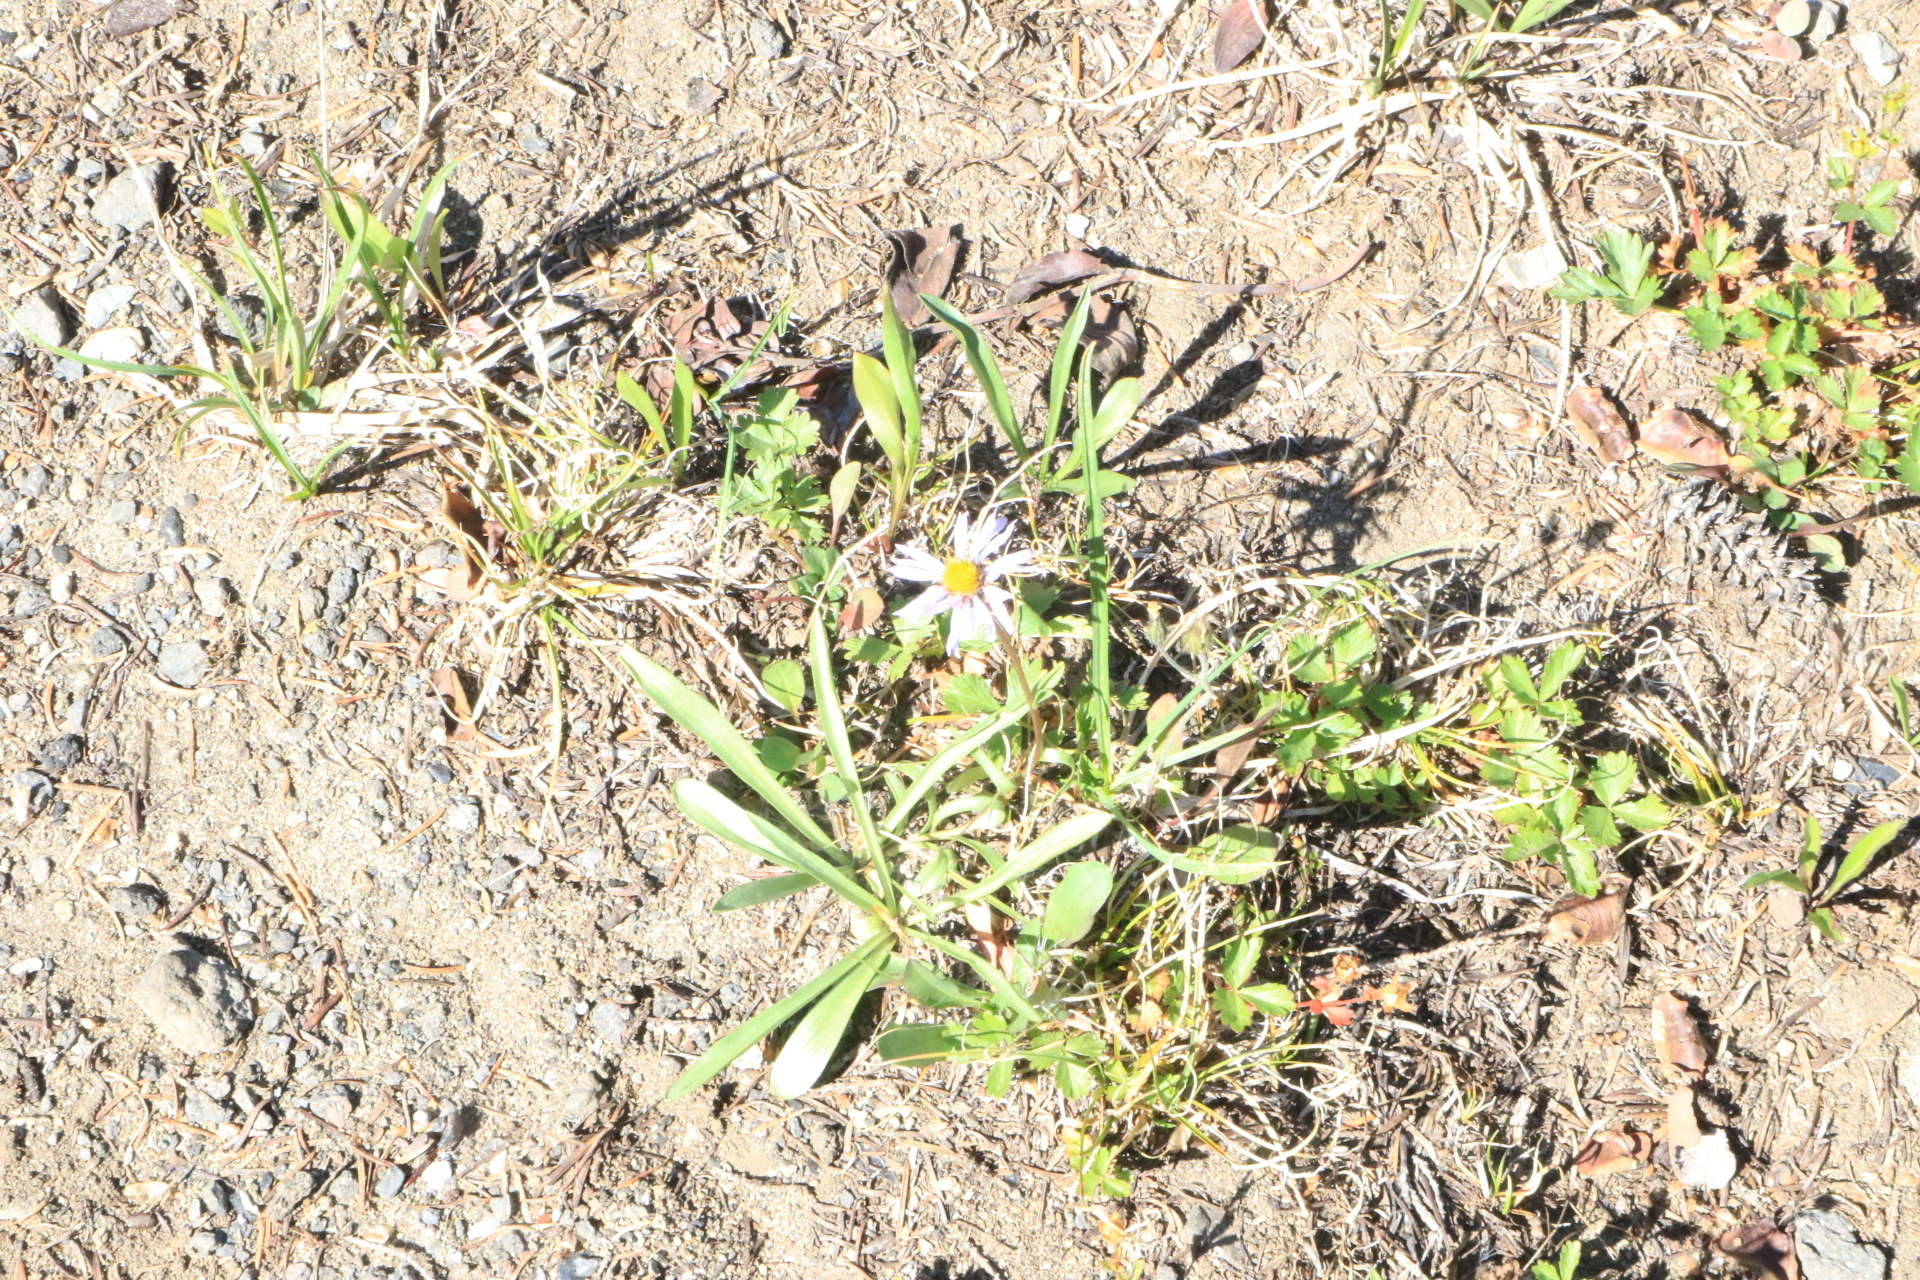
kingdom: Plantae
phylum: Tracheophyta
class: Magnoliopsida
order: Asterales
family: Asteraceae
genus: Oreostemma
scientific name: Oreostemma alpigenum
